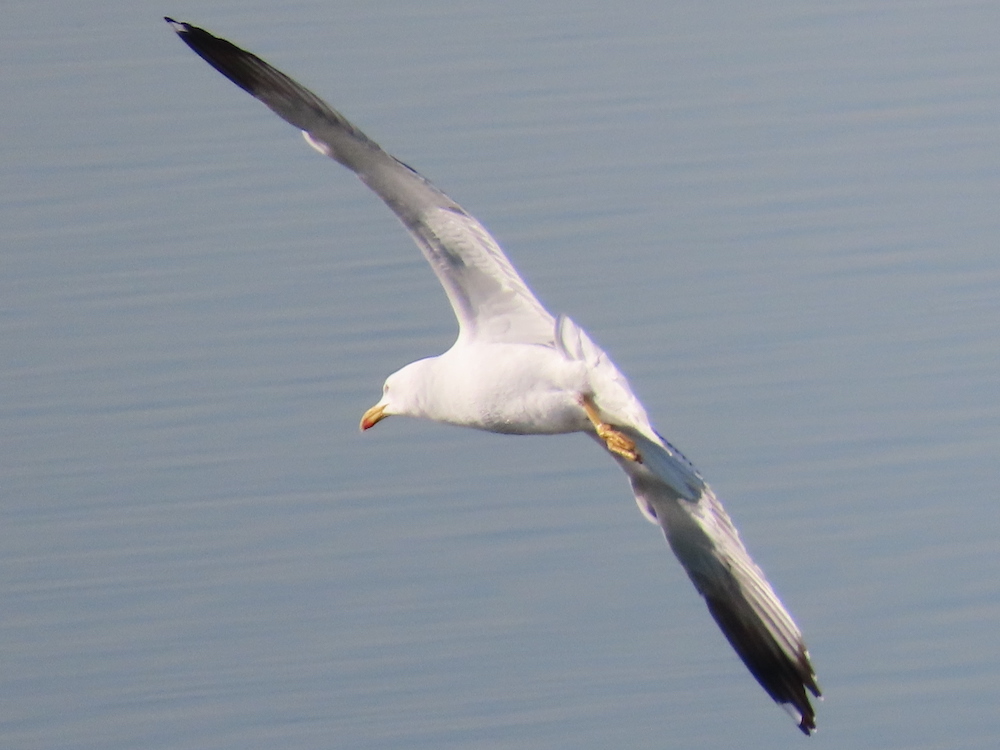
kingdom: Animalia
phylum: Chordata
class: Aves
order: Charadriiformes
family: Laridae
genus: Larus
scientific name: Larus fuscus
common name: Lesser black-backed gull
